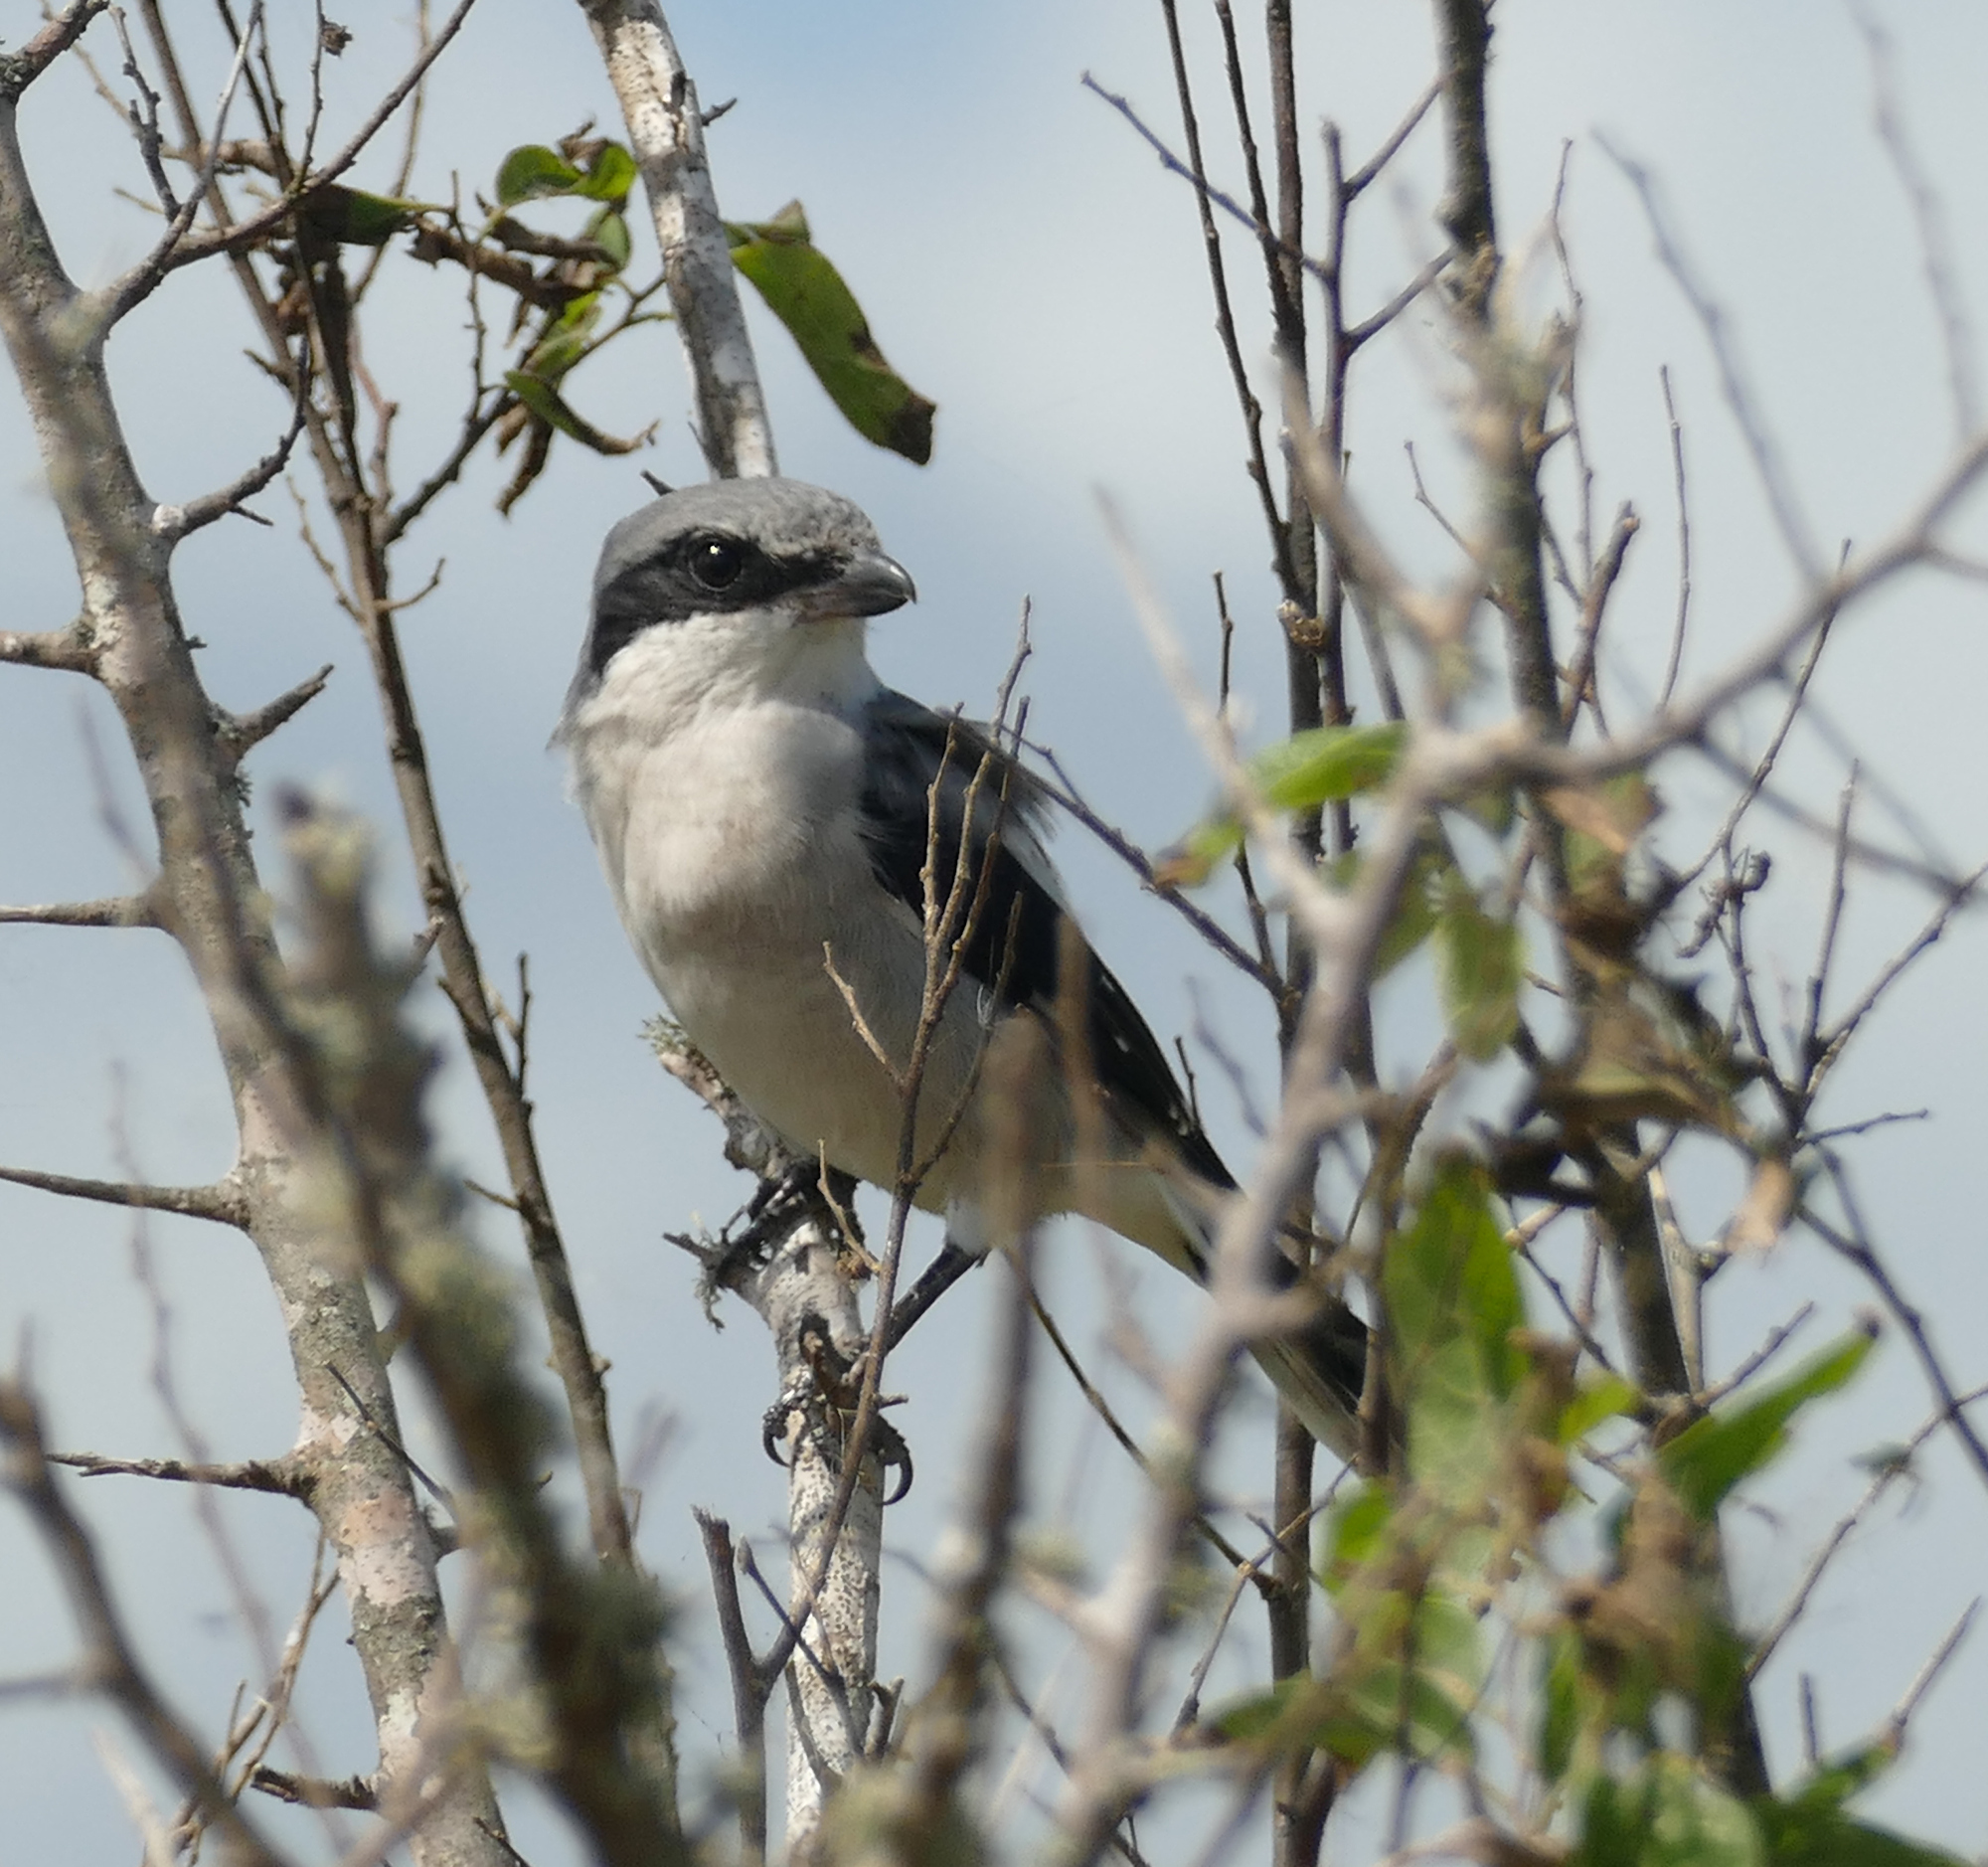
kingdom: Animalia
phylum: Chordata
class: Aves
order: Passeriformes
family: Laniidae
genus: Lanius
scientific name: Lanius ludovicianus
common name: Loggerhead shrike
